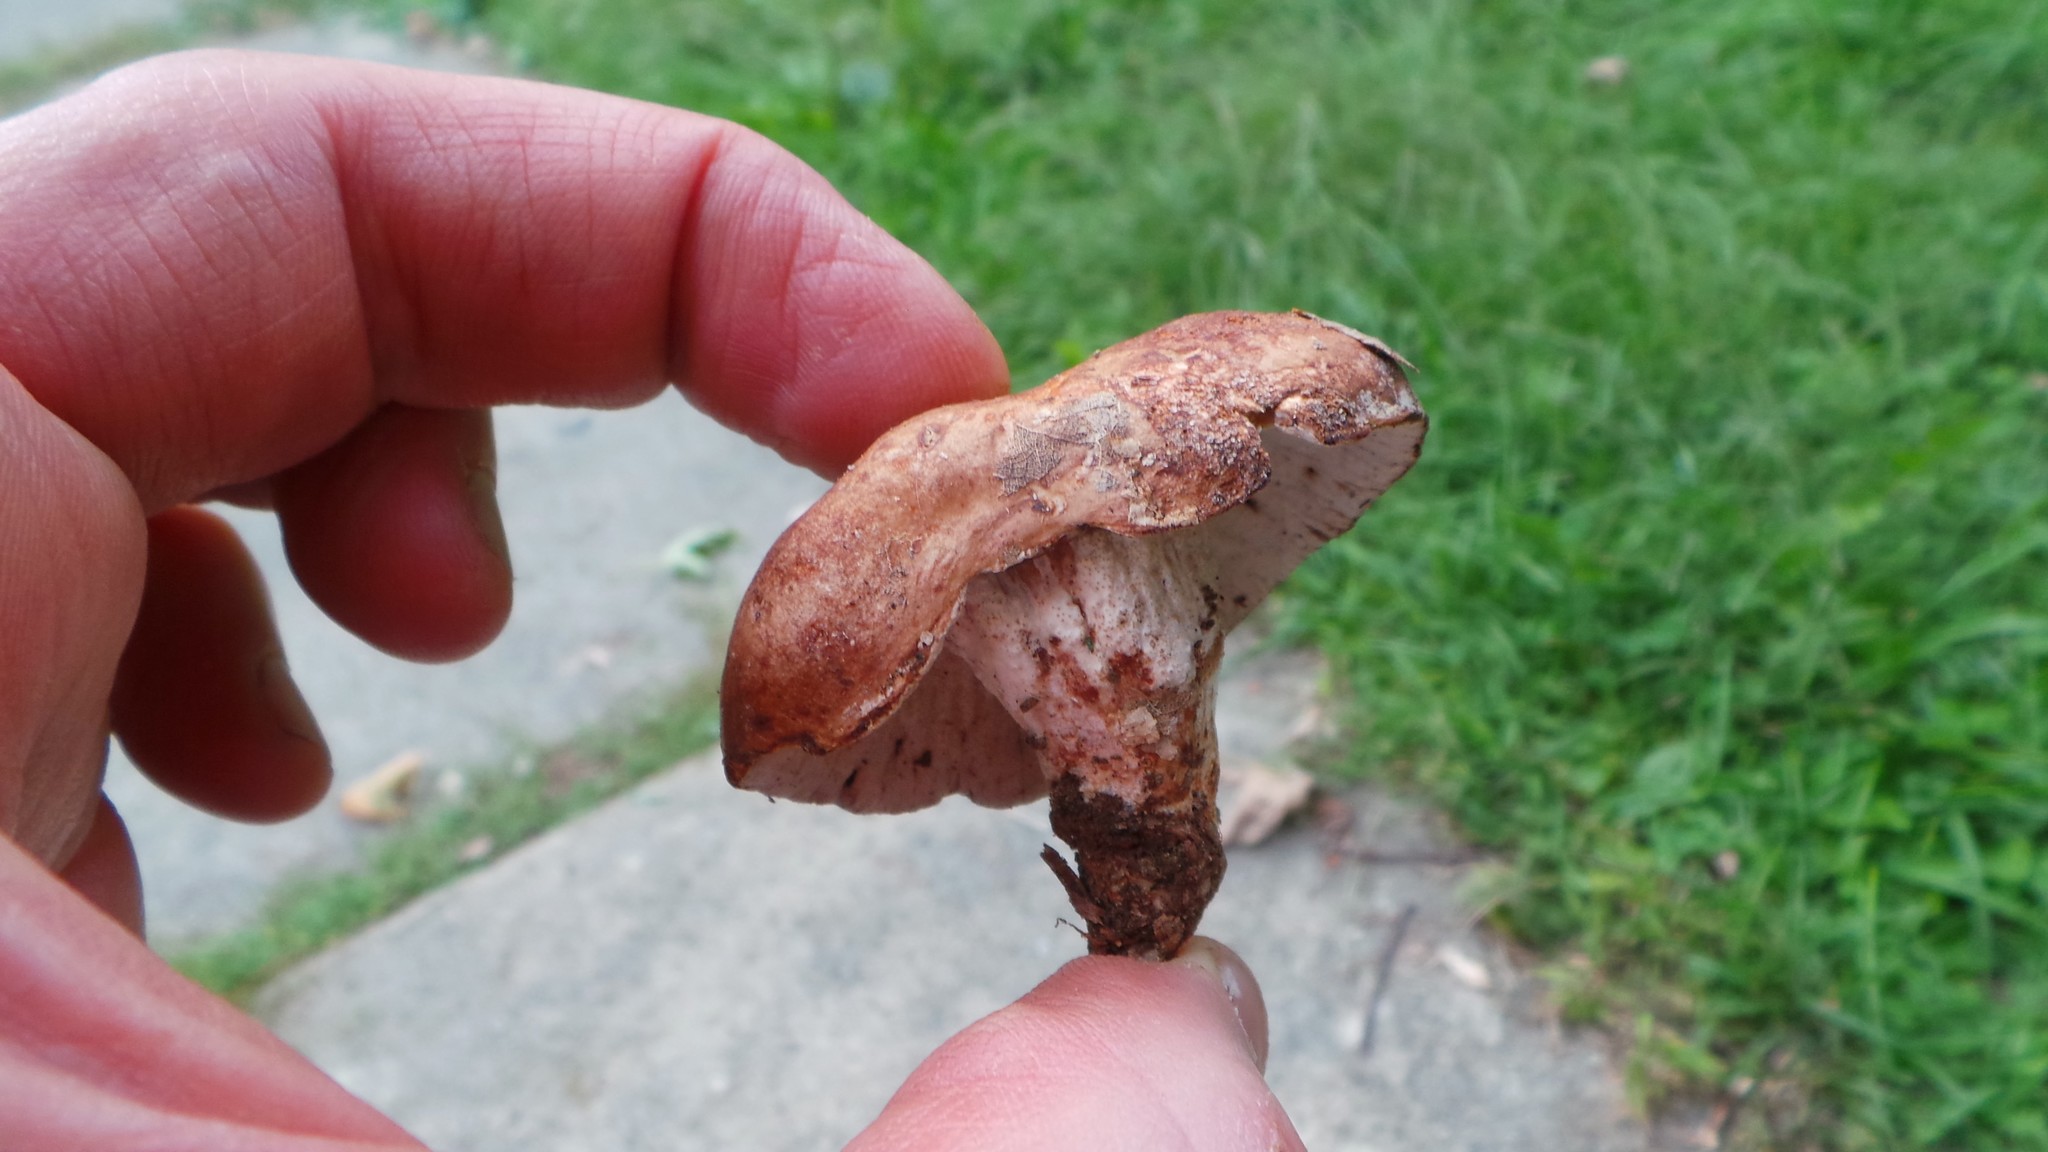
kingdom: Fungi
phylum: Ascomycota
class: Sordariomycetes
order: Hypocreales
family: Hypocreaceae
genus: Hypomyces
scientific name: Hypomyces lateritius
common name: Ochre gillgobbler
